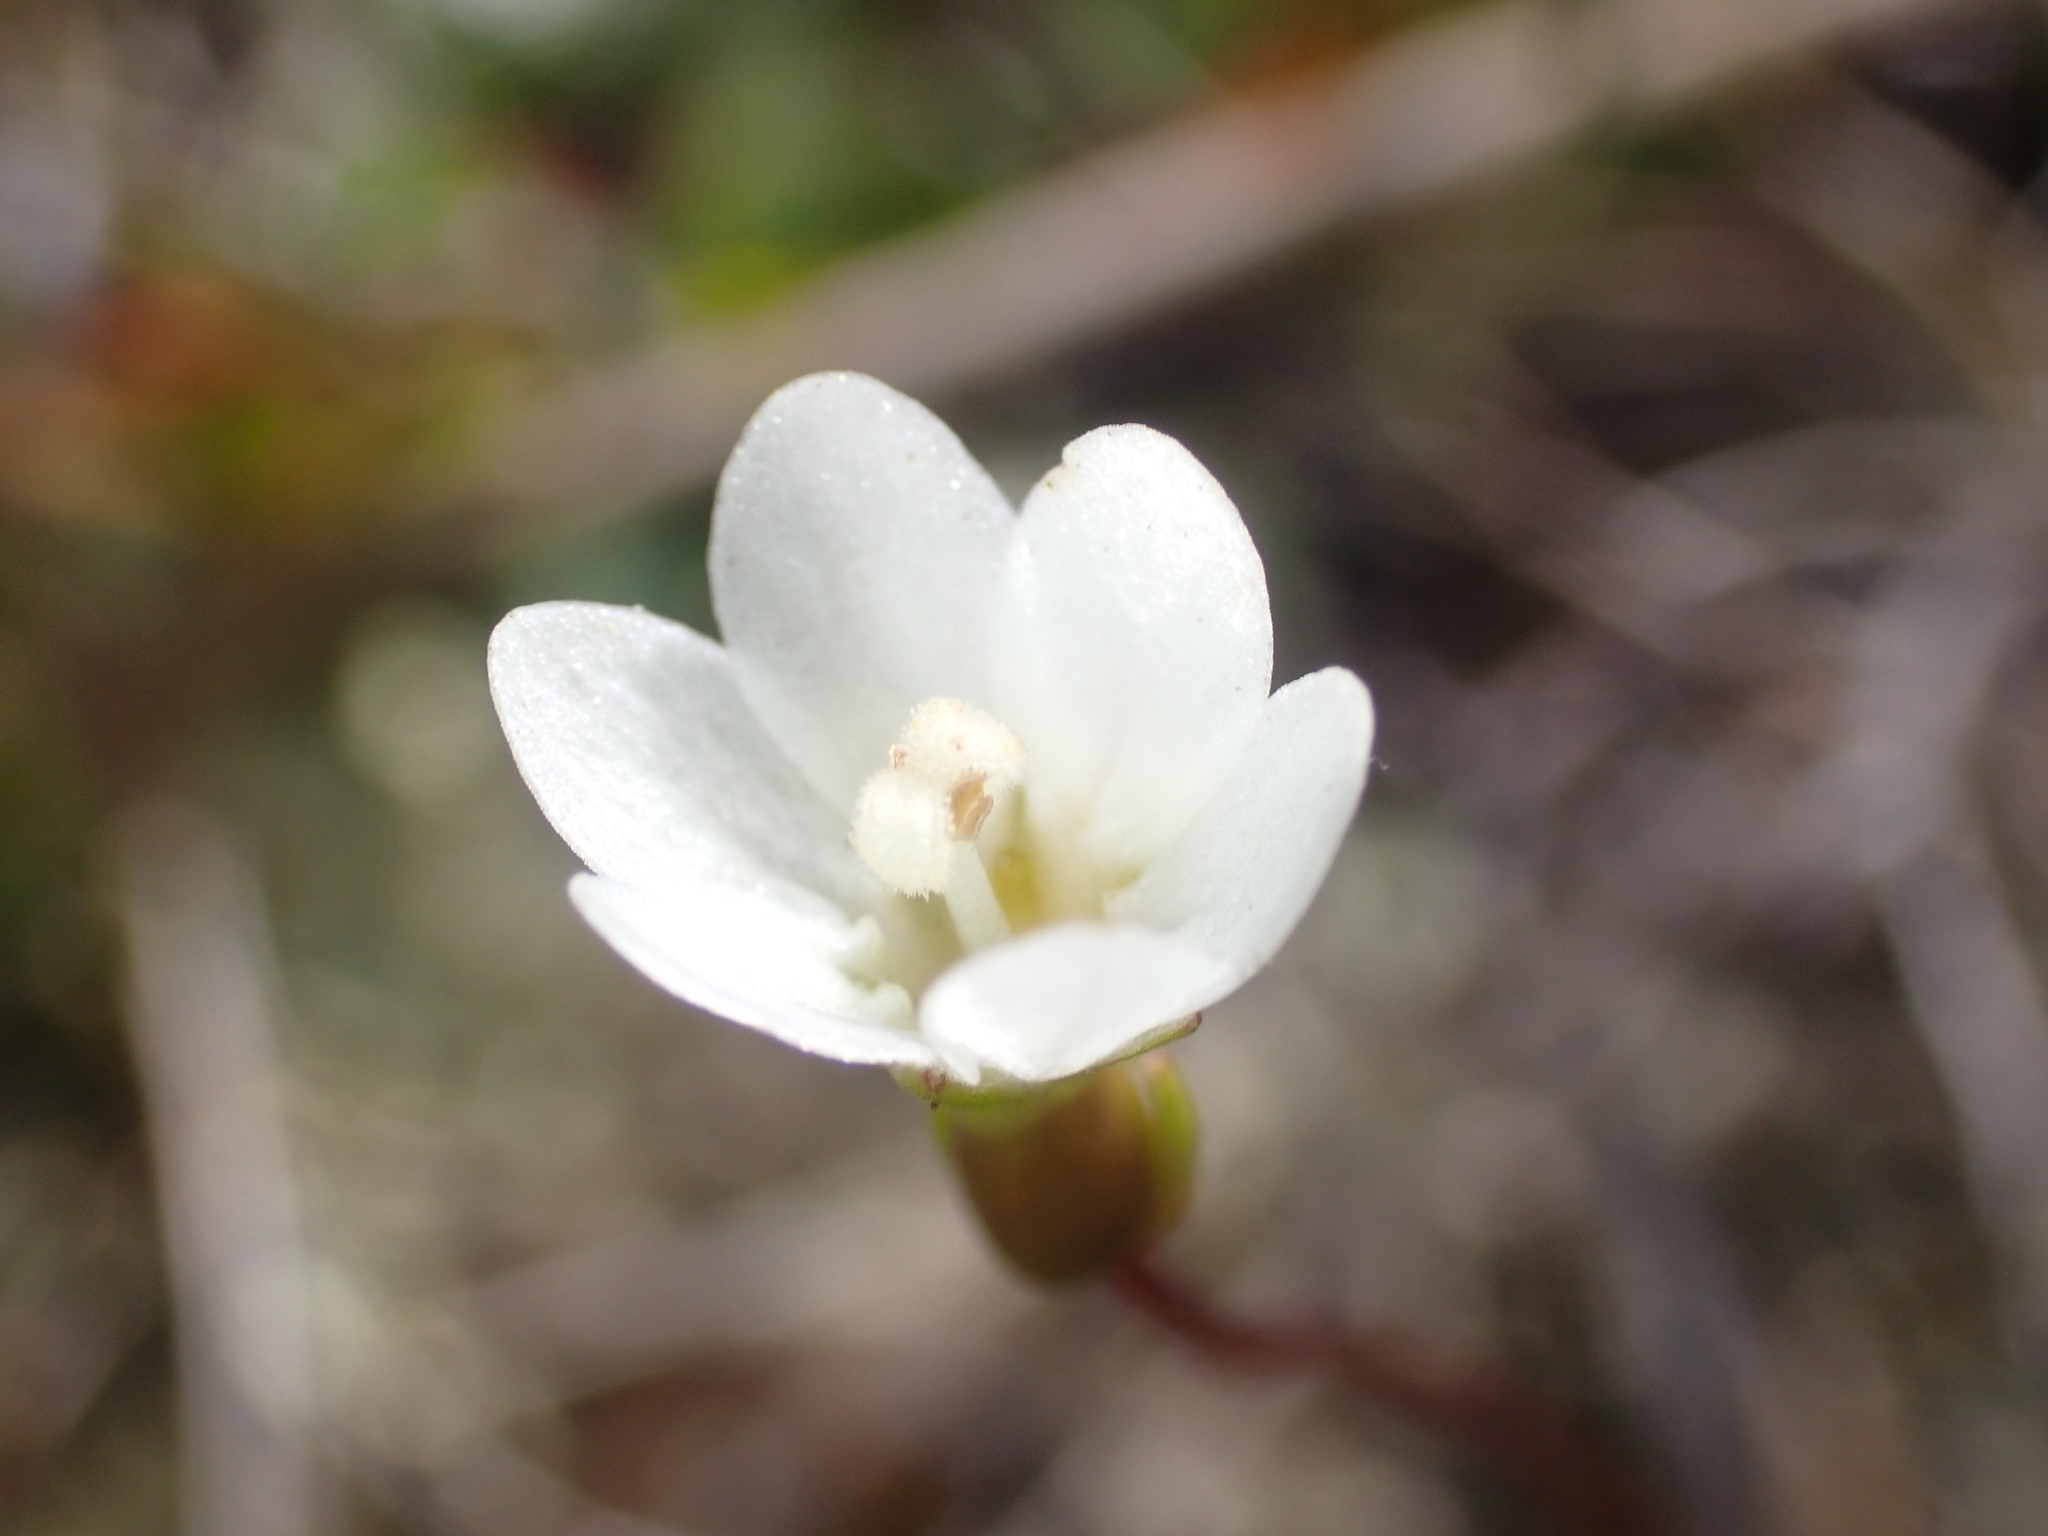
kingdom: Plantae
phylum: Tracheophyta
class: Magnoliopsida
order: Asterales
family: Stylidiaceae
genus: Forstera
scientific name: Forstera tenella
